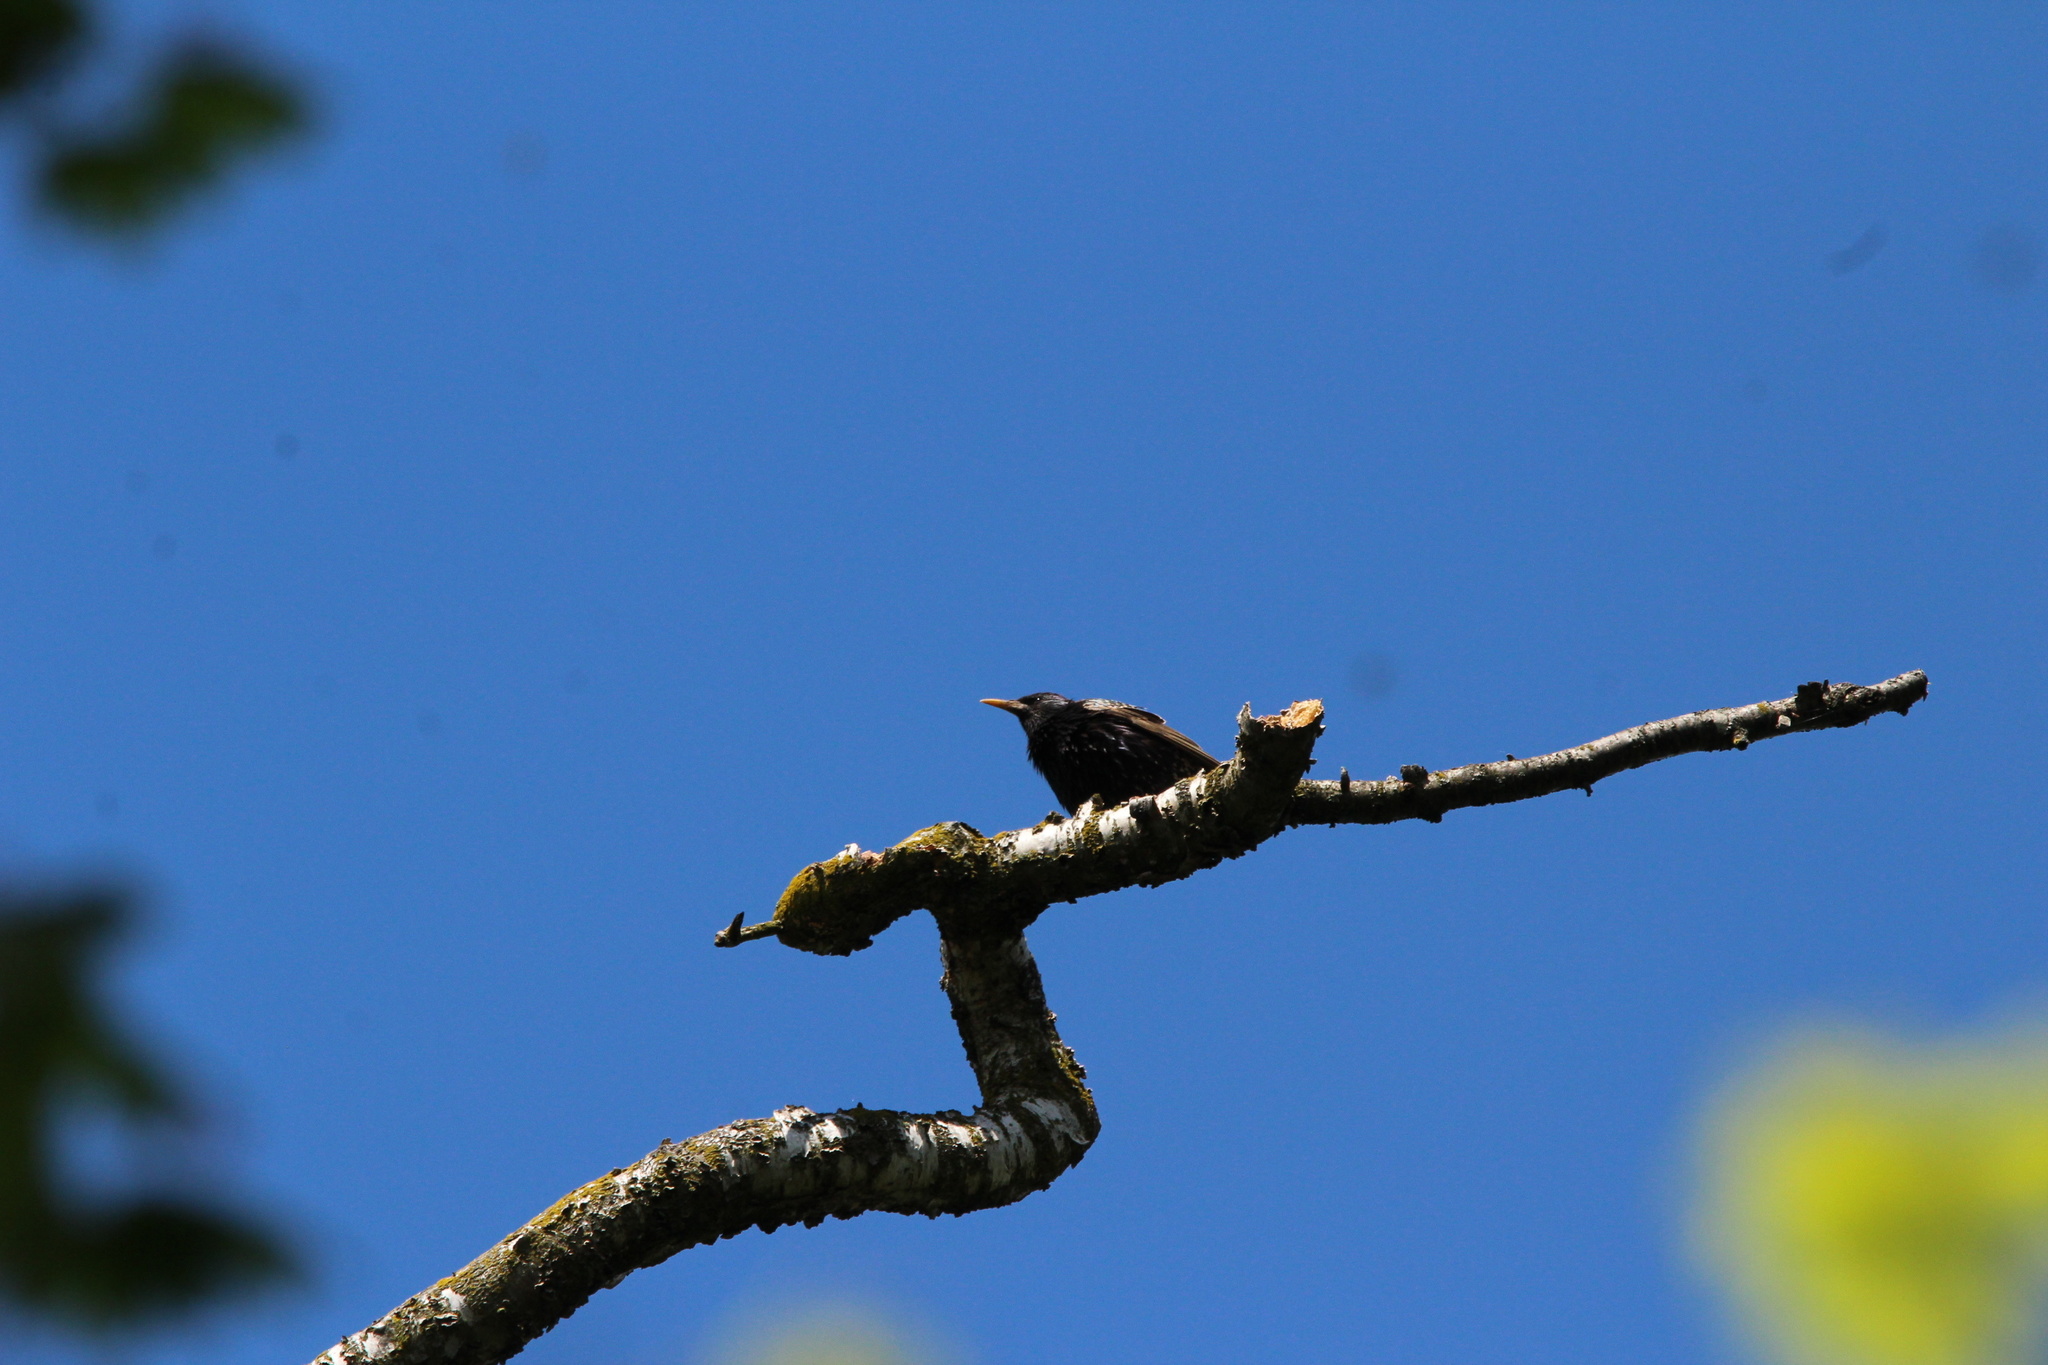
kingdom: Animalia
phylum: Chordata
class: Aves
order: Passeriformes
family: Sturnidae
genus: Sturnus
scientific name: Sturnus vulgaris
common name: Common starling
